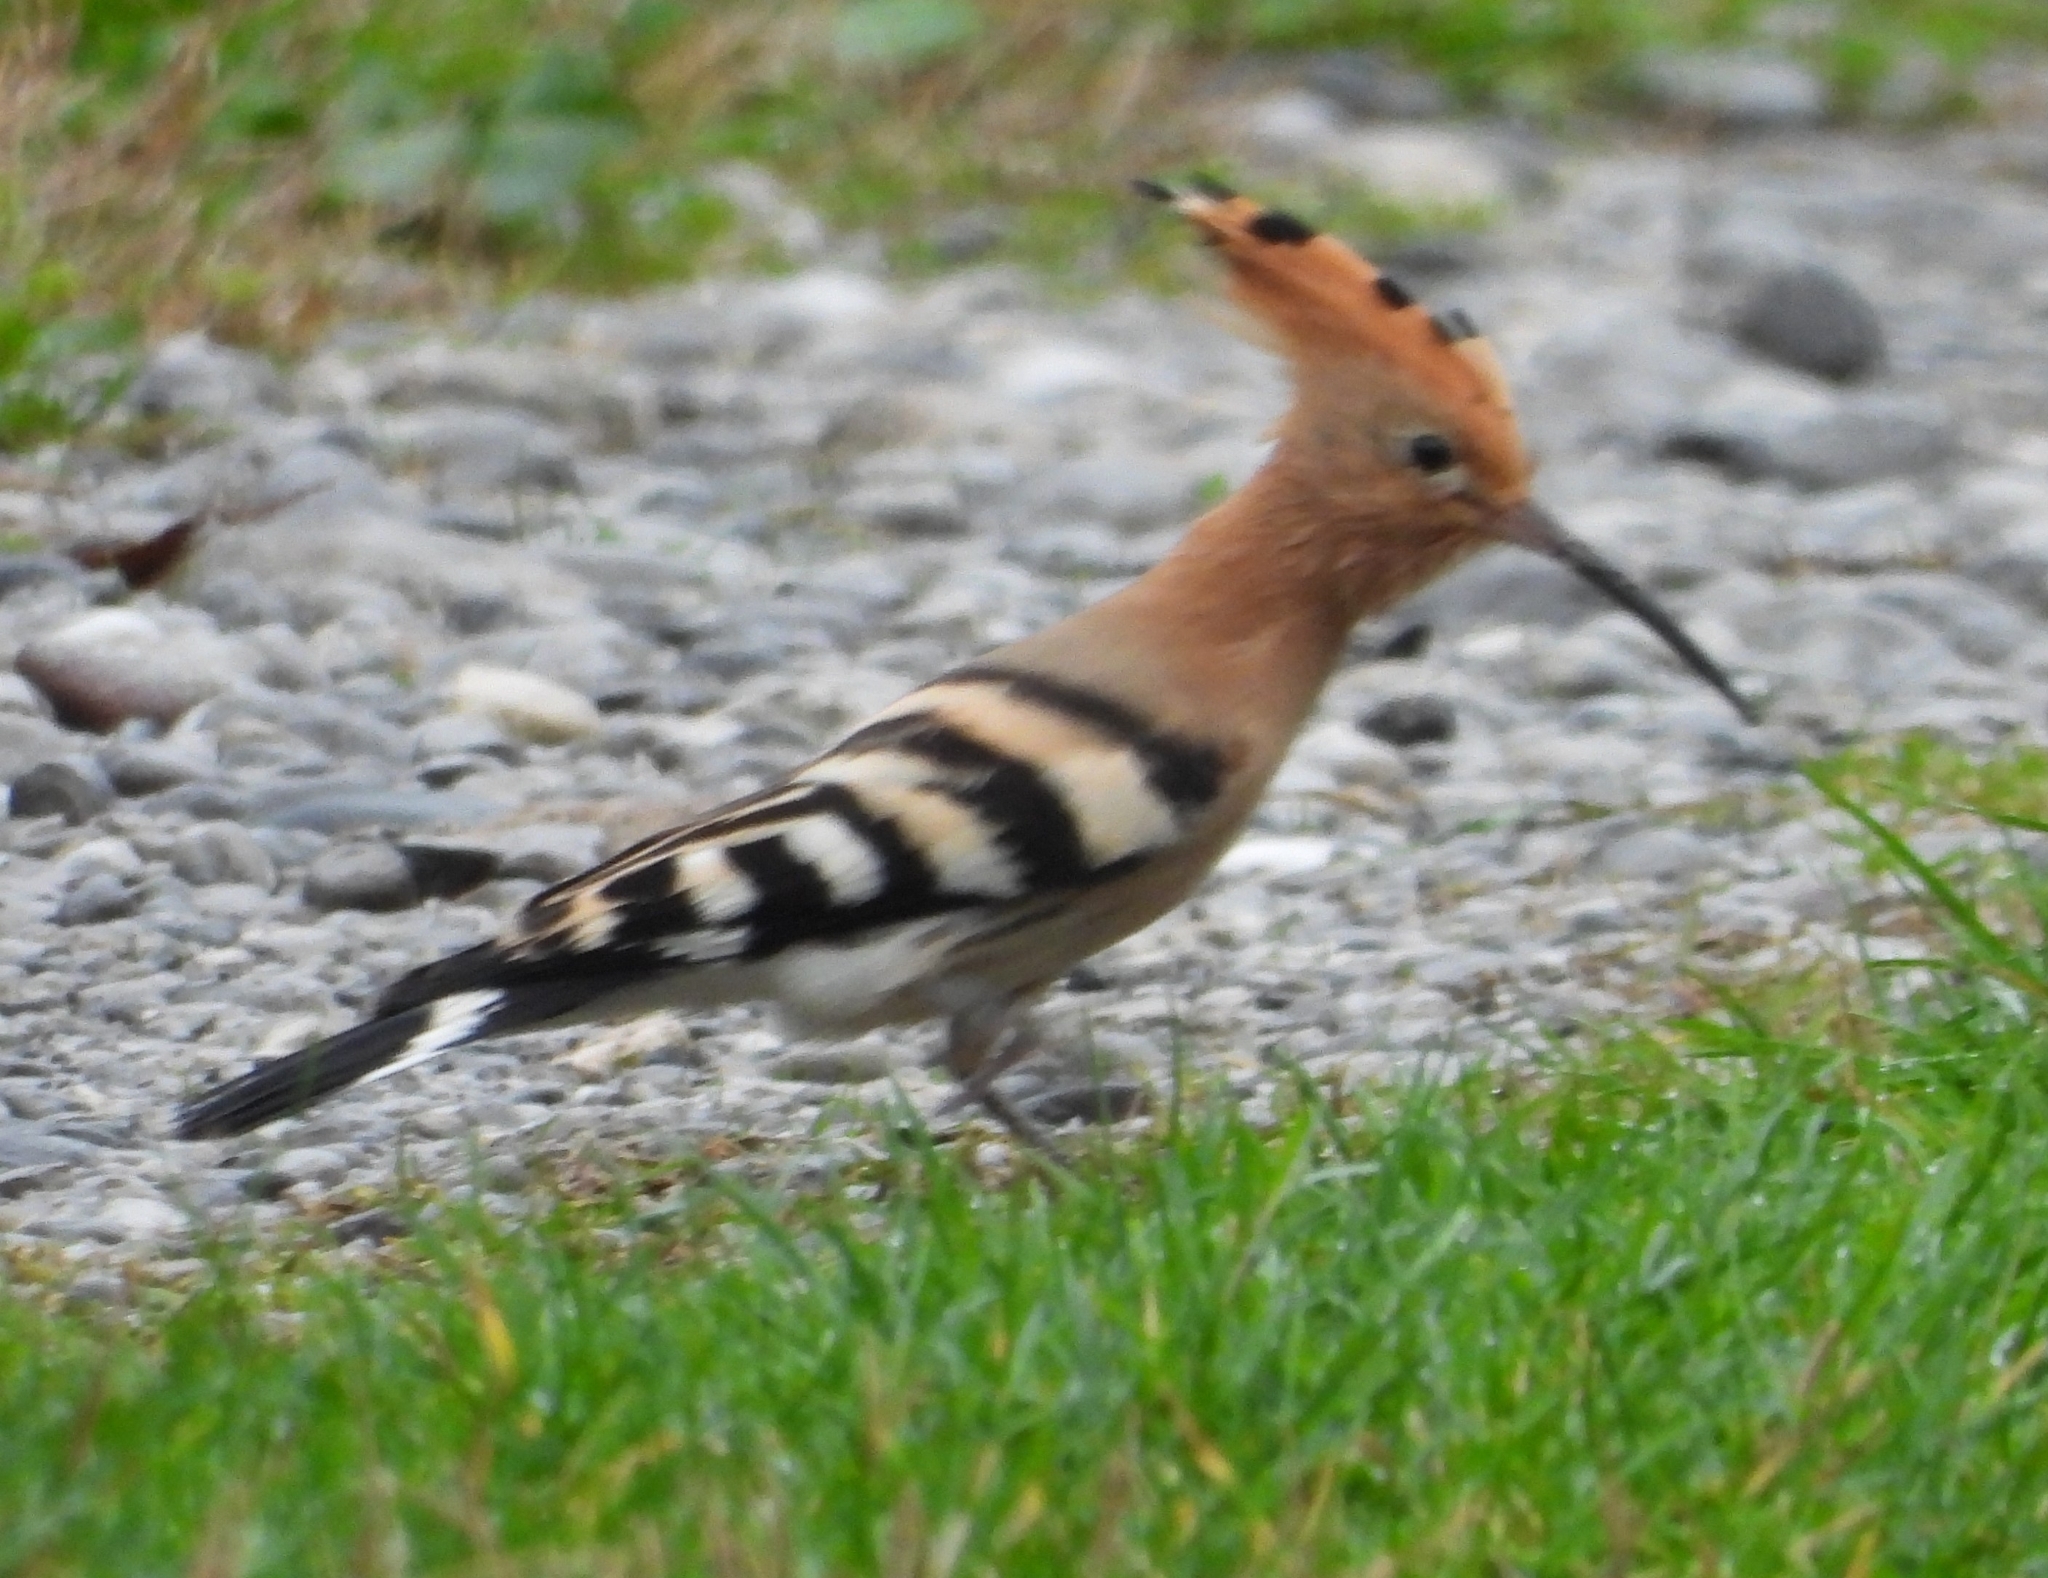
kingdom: Animalia
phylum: Chordata
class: Aves
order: Bucerotiformes
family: Upupidae
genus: Upupa
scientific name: Upupa epops
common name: Eurasian hoopoe
